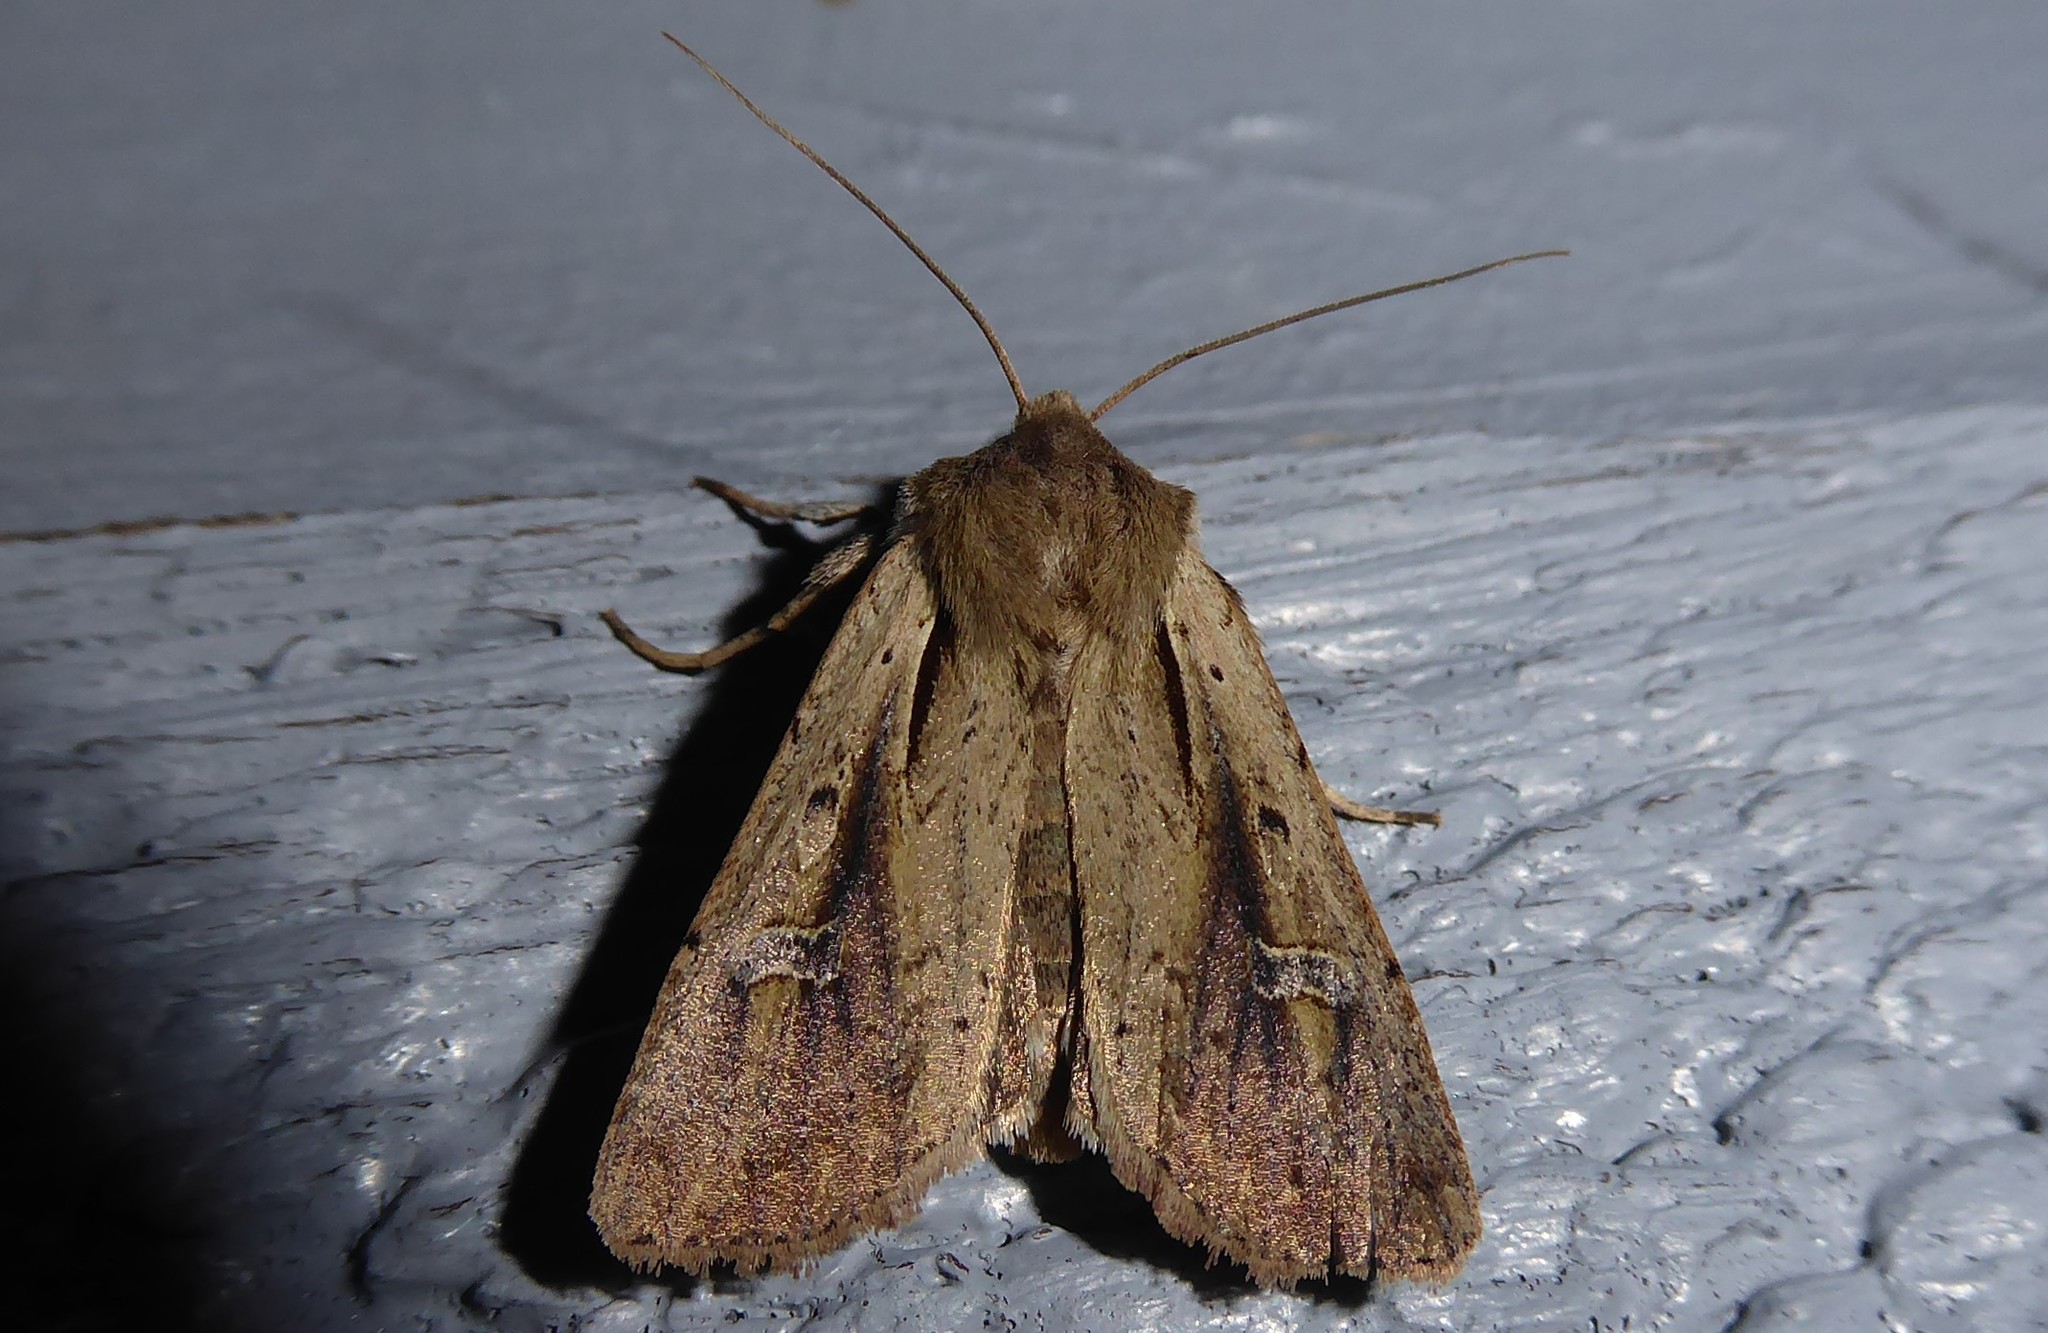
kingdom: Animalia
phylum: Arthropoda
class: Insecta
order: Lepidoptera
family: Noctuidae
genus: Ichneutica
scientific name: Ichneutica atristriga
